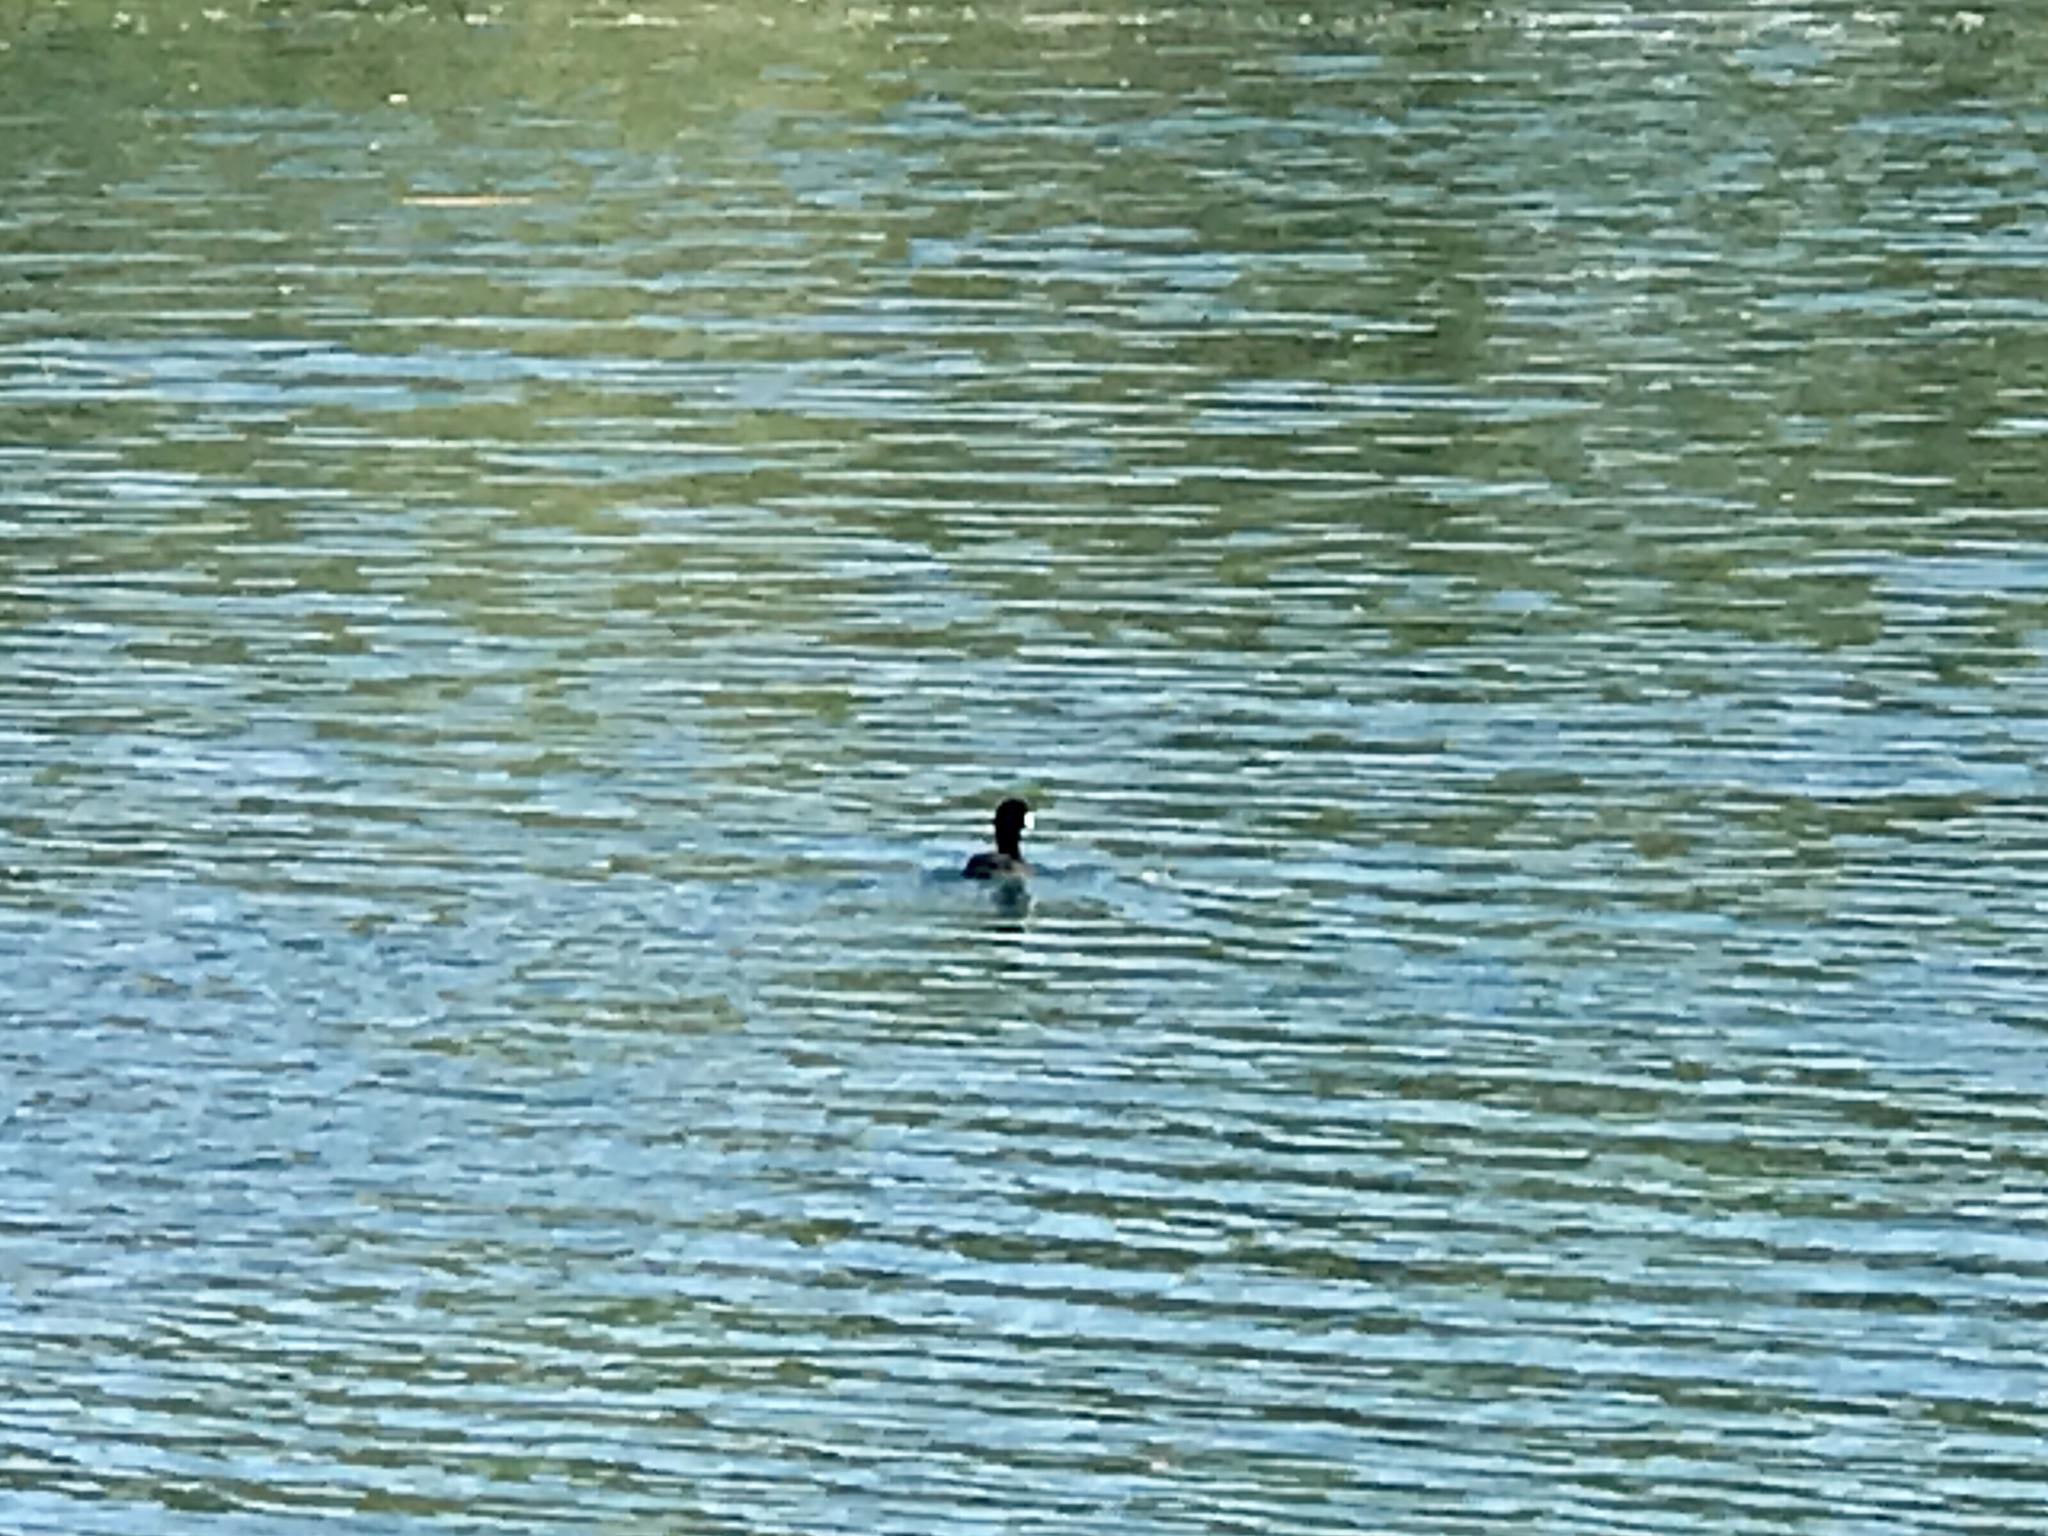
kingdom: Animalia
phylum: Chordata
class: Aves
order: Gruiformes
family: Rallidae
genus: Fulica
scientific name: Fulica americana
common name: American coot
